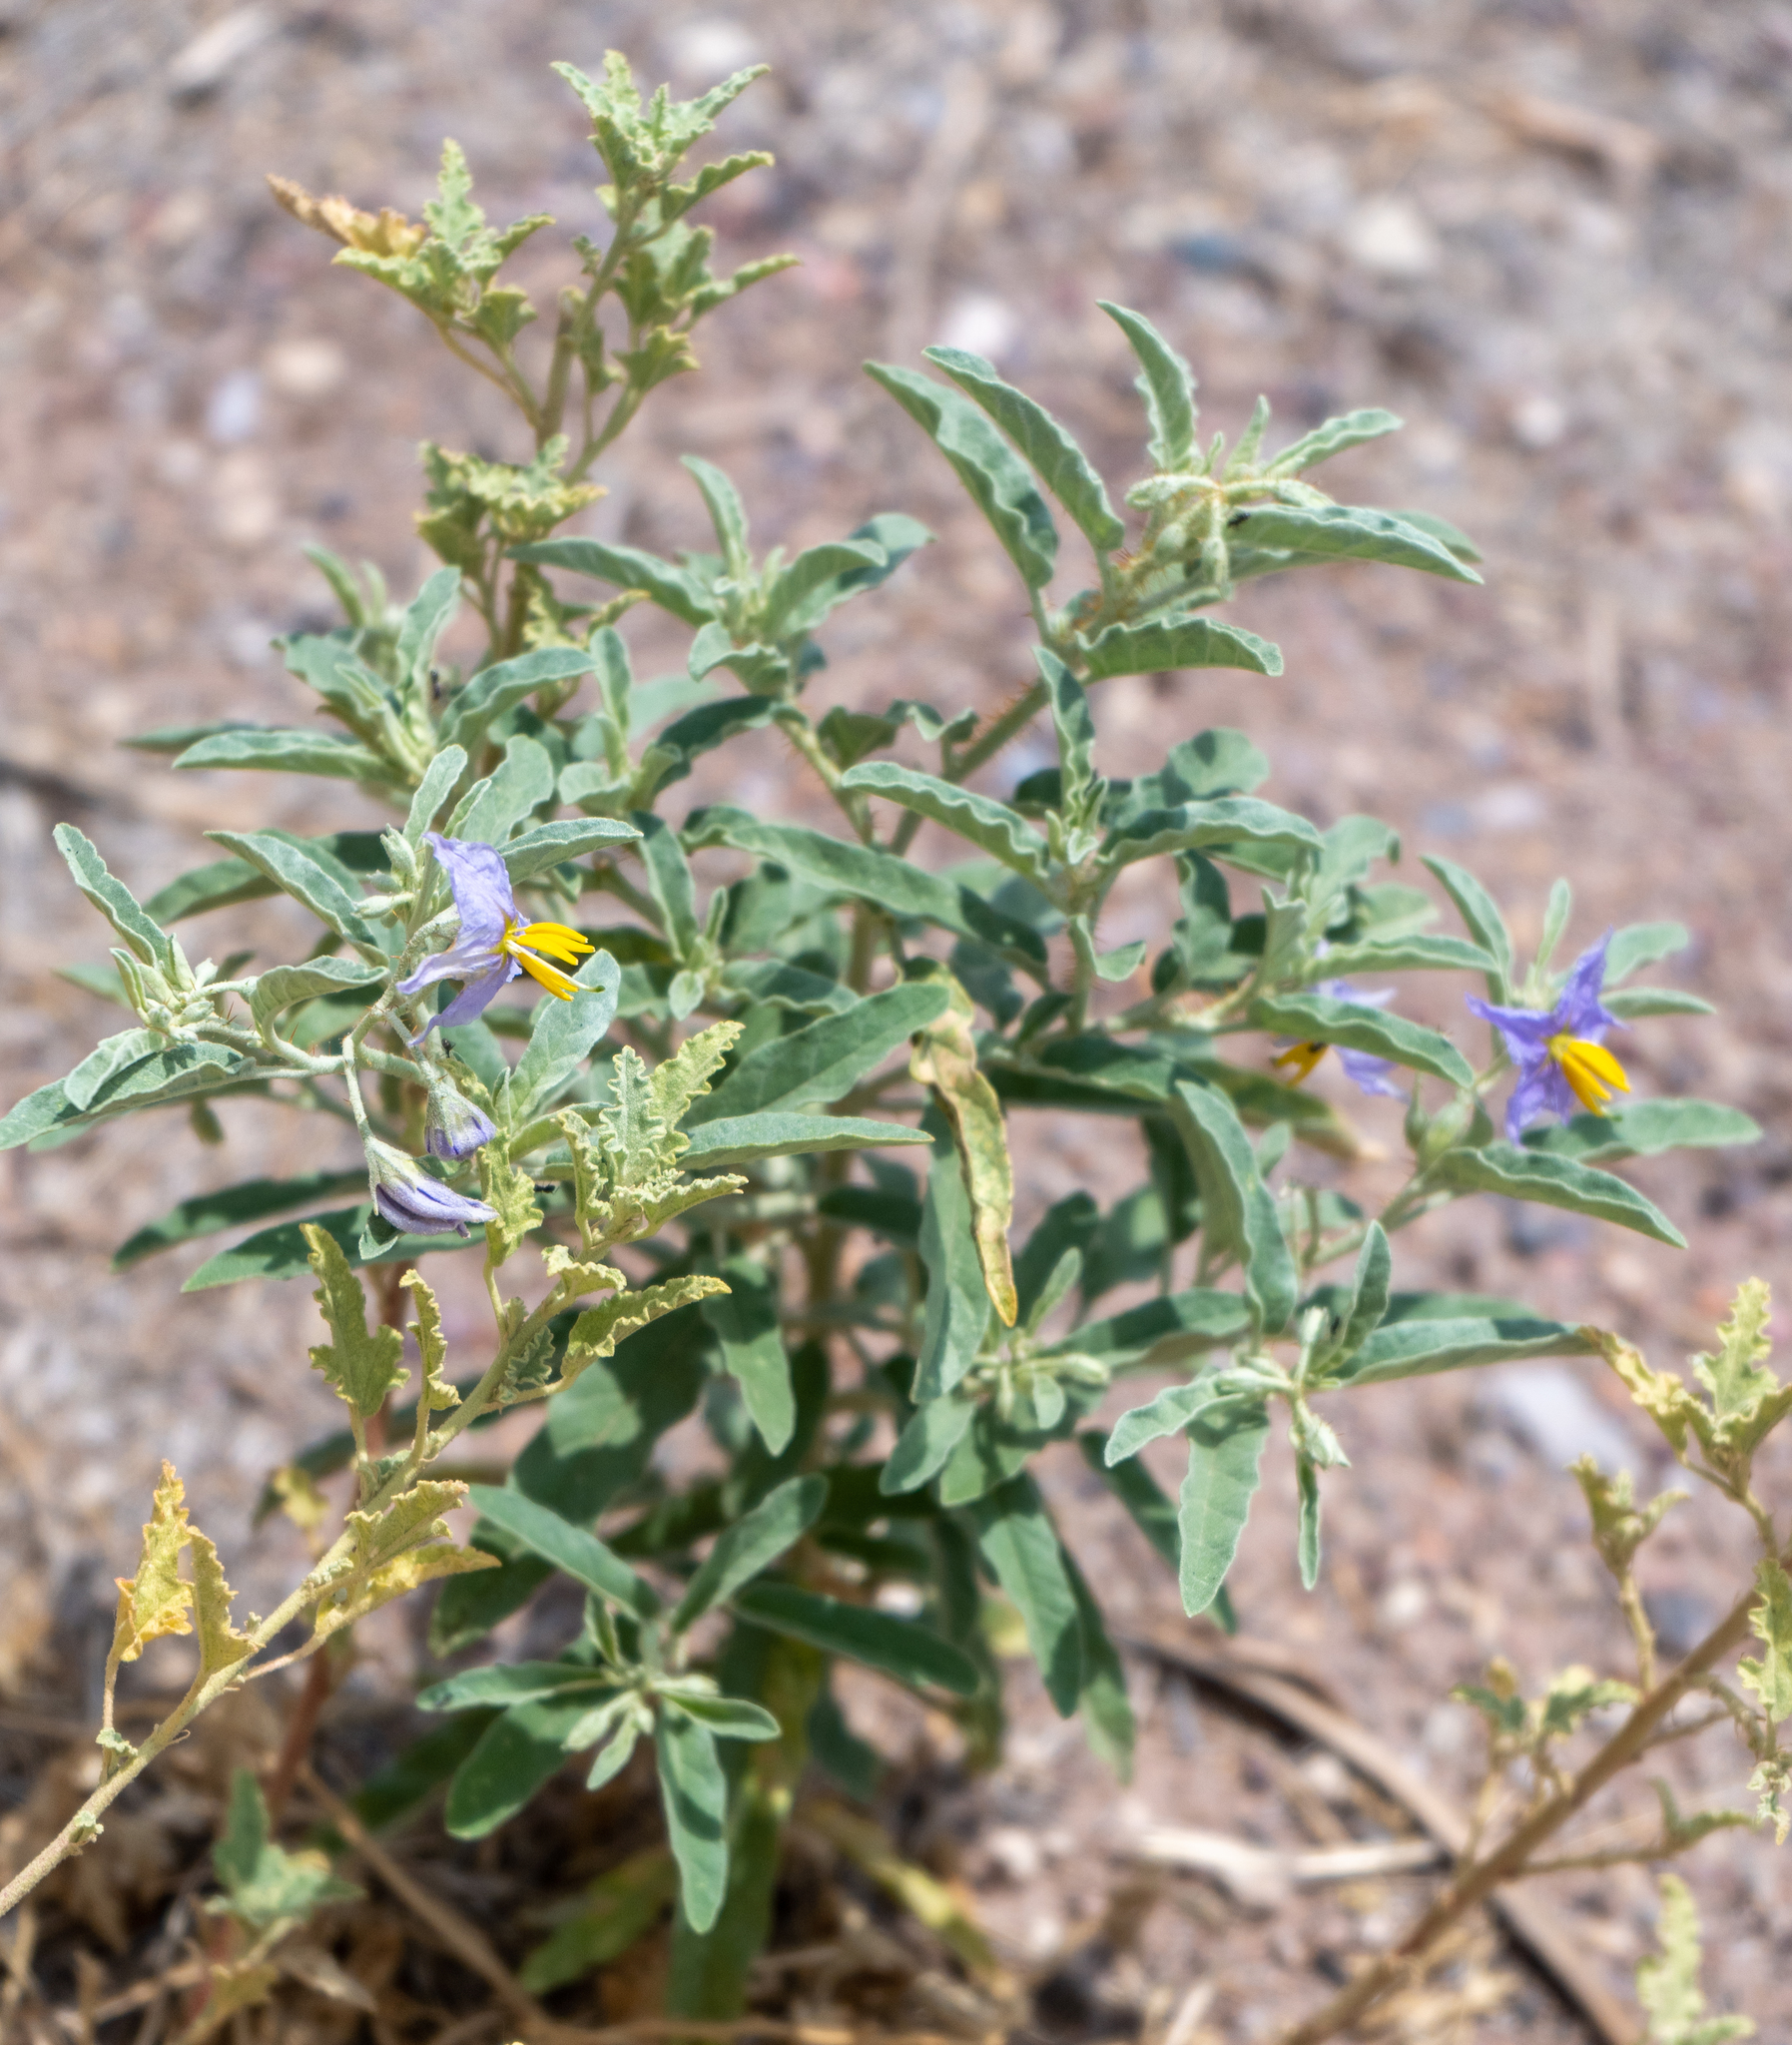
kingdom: Plantae
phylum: Tracheophyta
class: Magnoliopsida
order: Solanales
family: Solanaceae
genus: Solanum
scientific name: Solanum elaeagnifolium
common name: Silverleaf nightshade
